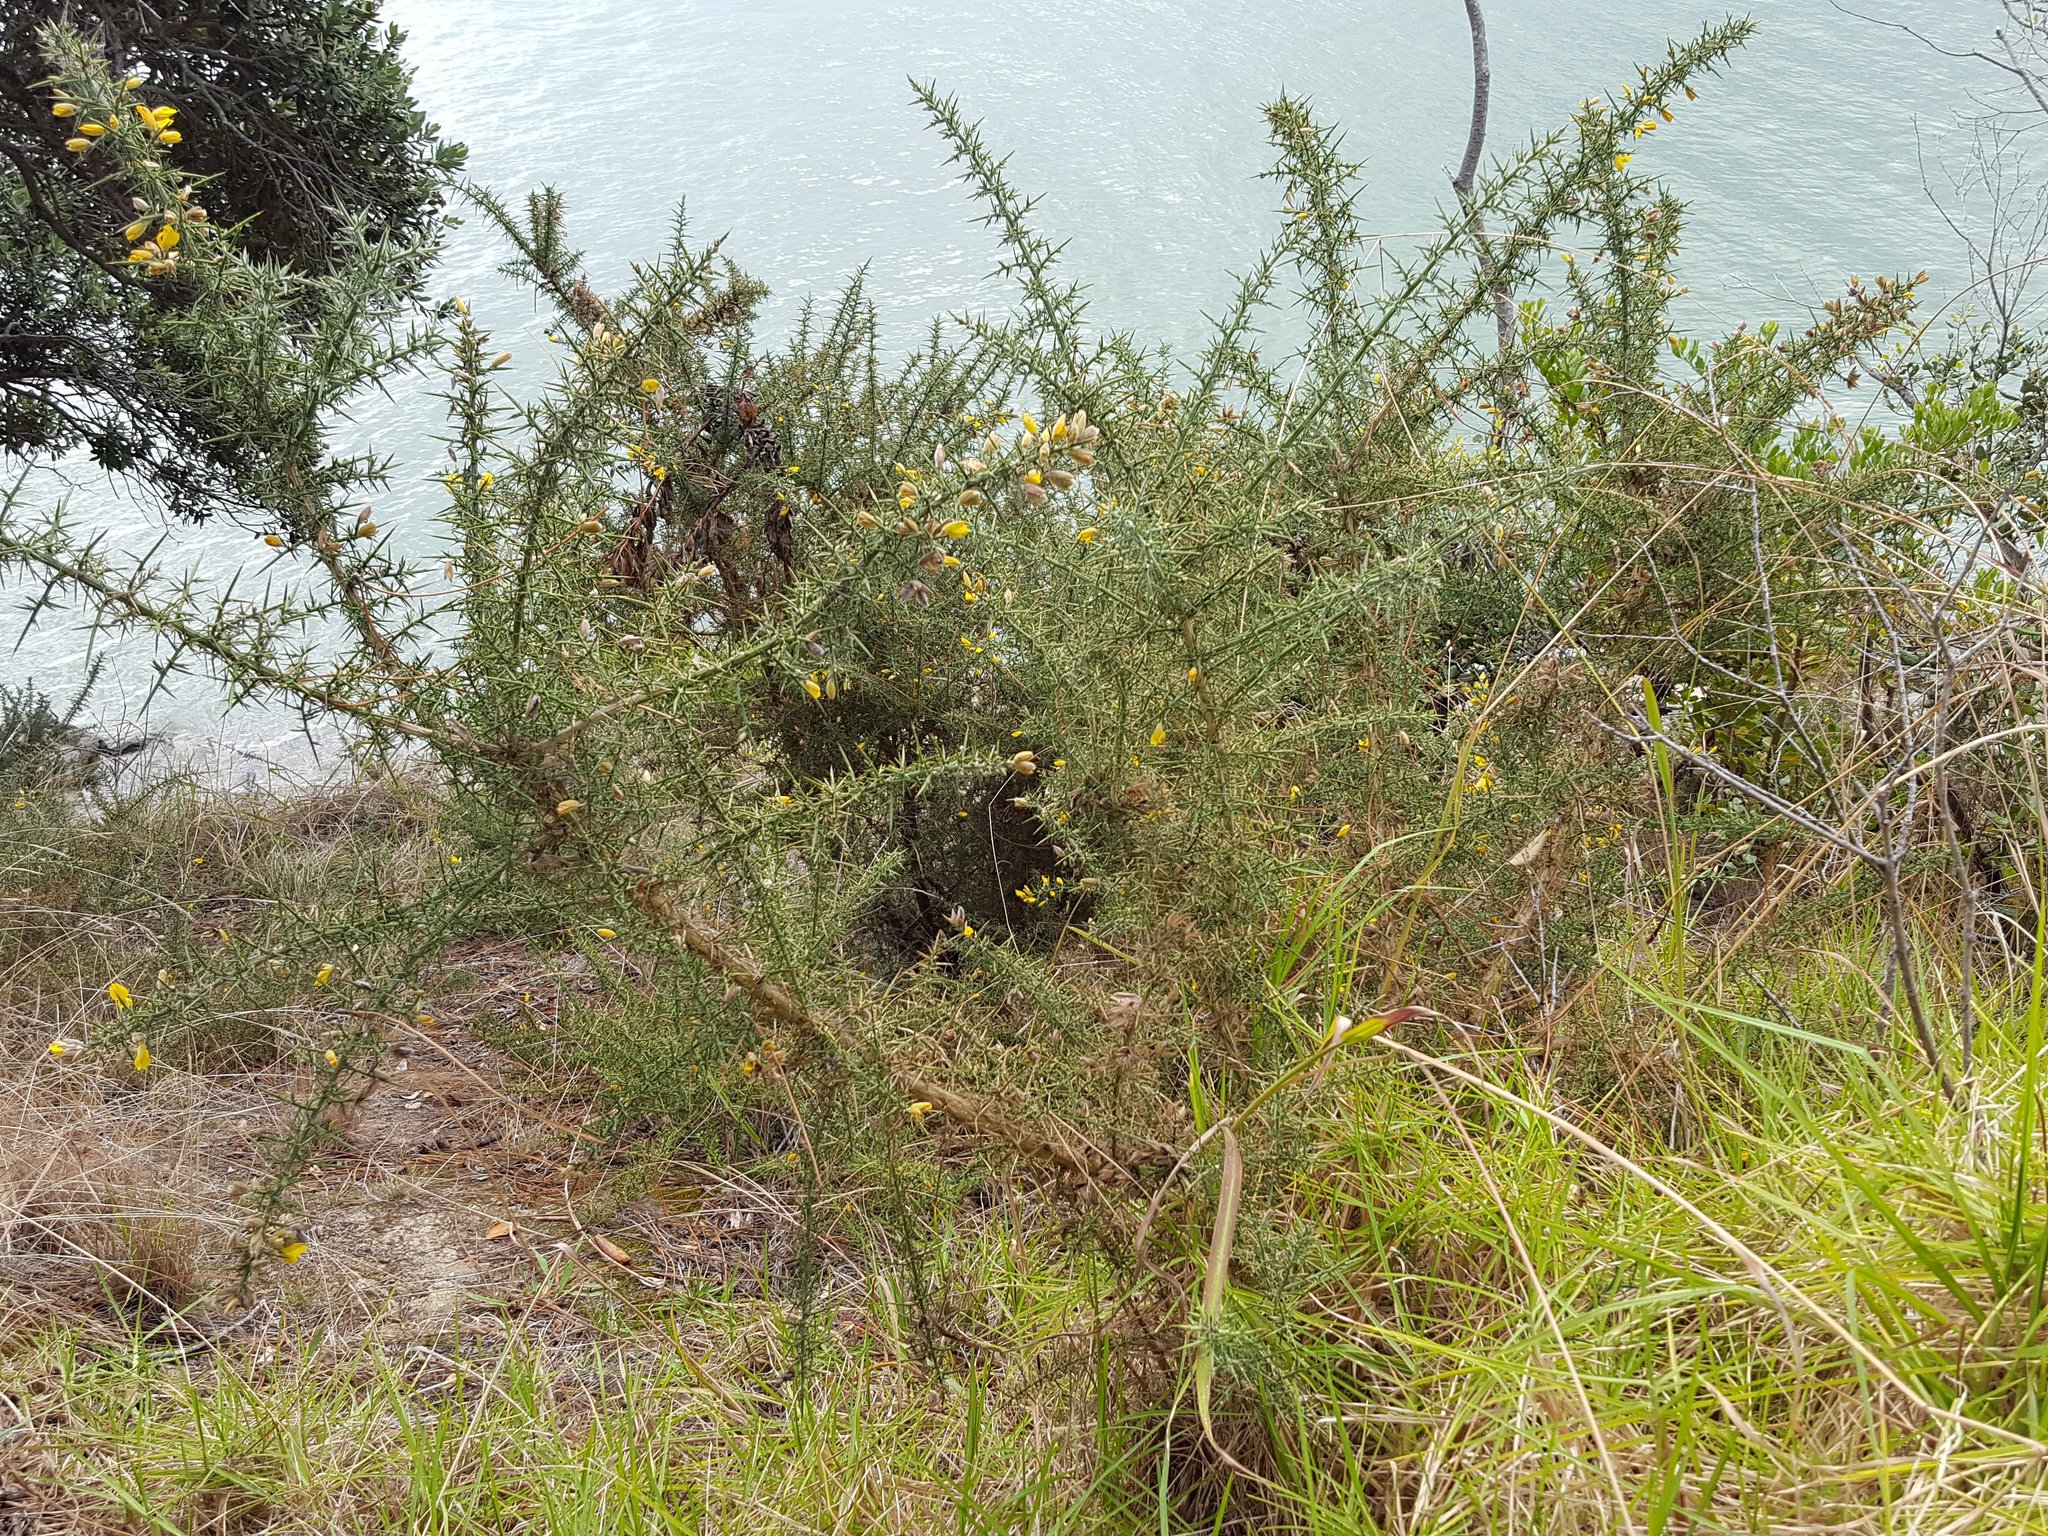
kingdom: Plantae
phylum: Tracheophyta
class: Magnoliopsida
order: Fabales
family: Fabaceae
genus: Ulex
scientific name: Ulex europaeus
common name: Common gorse
